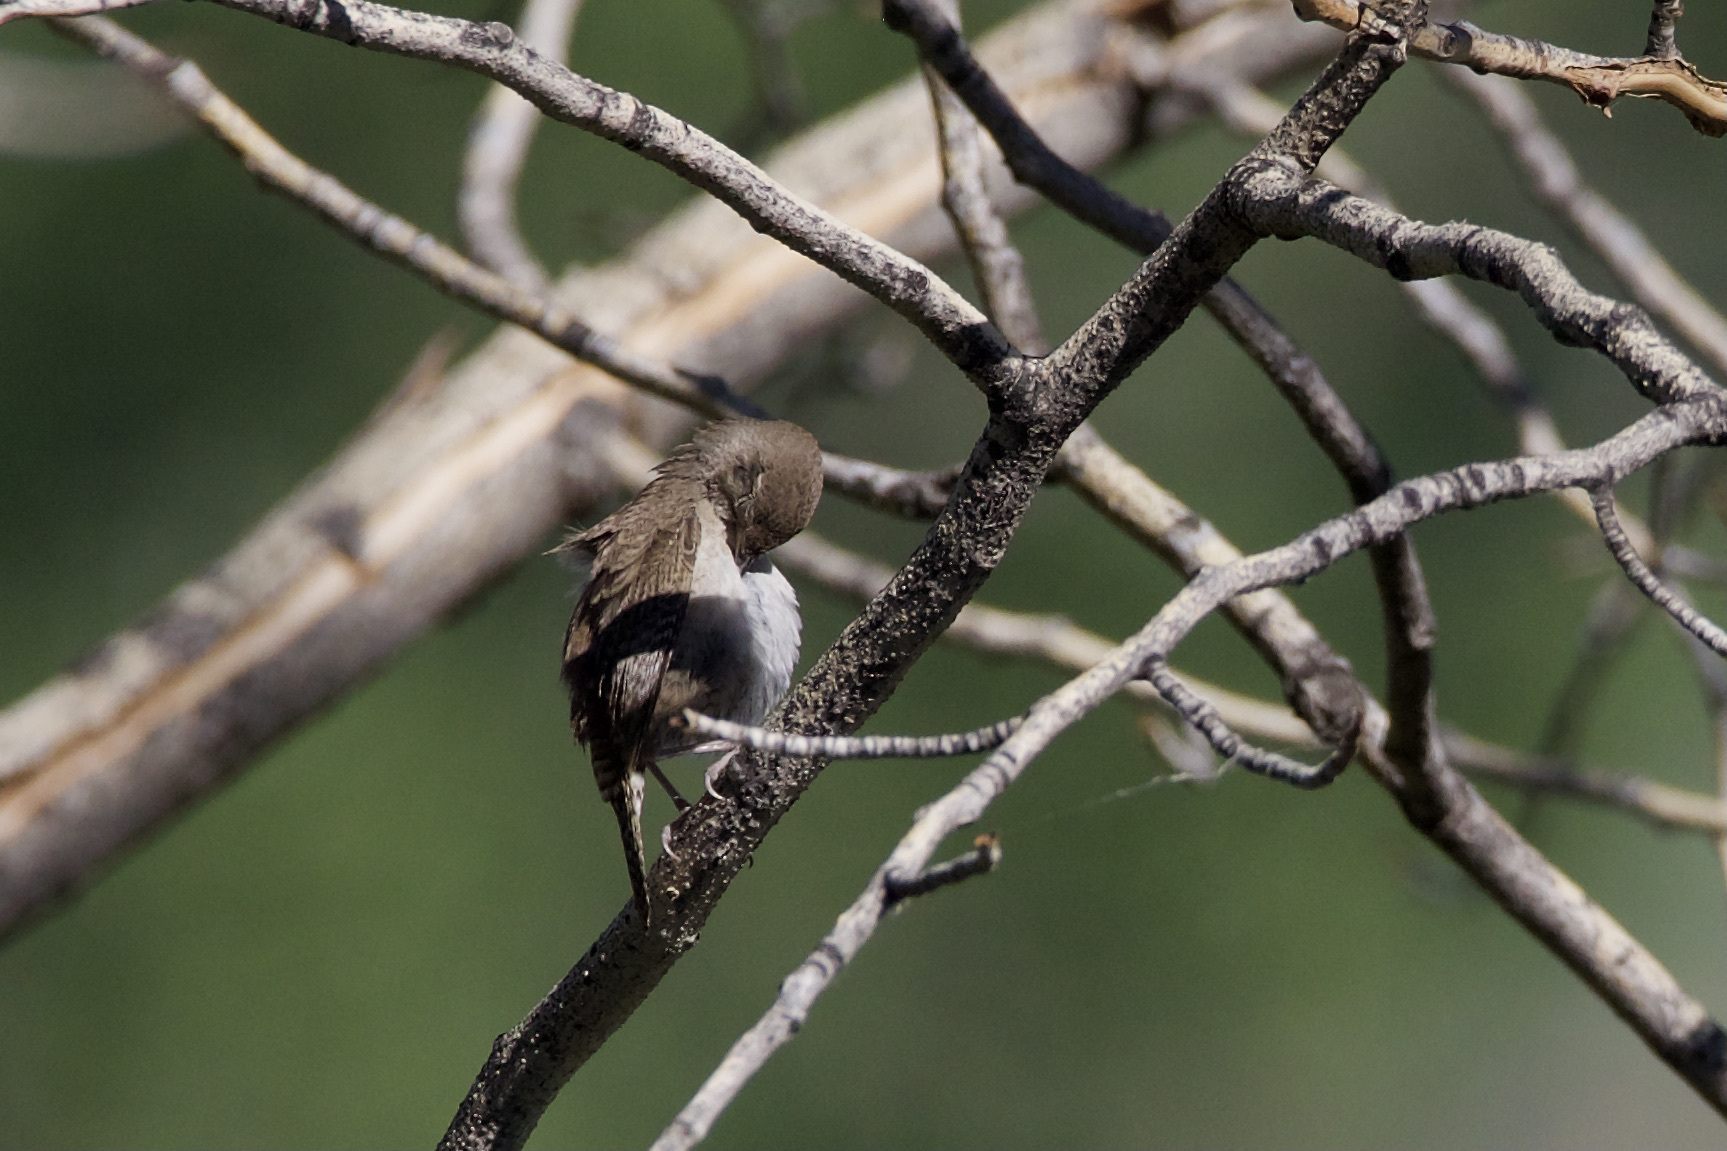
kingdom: Animalia
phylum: Chordata
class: Aves
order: Passeriformes
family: Troglodytidae
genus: Troglodytes
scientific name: Troglodytes aedon
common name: House wren
